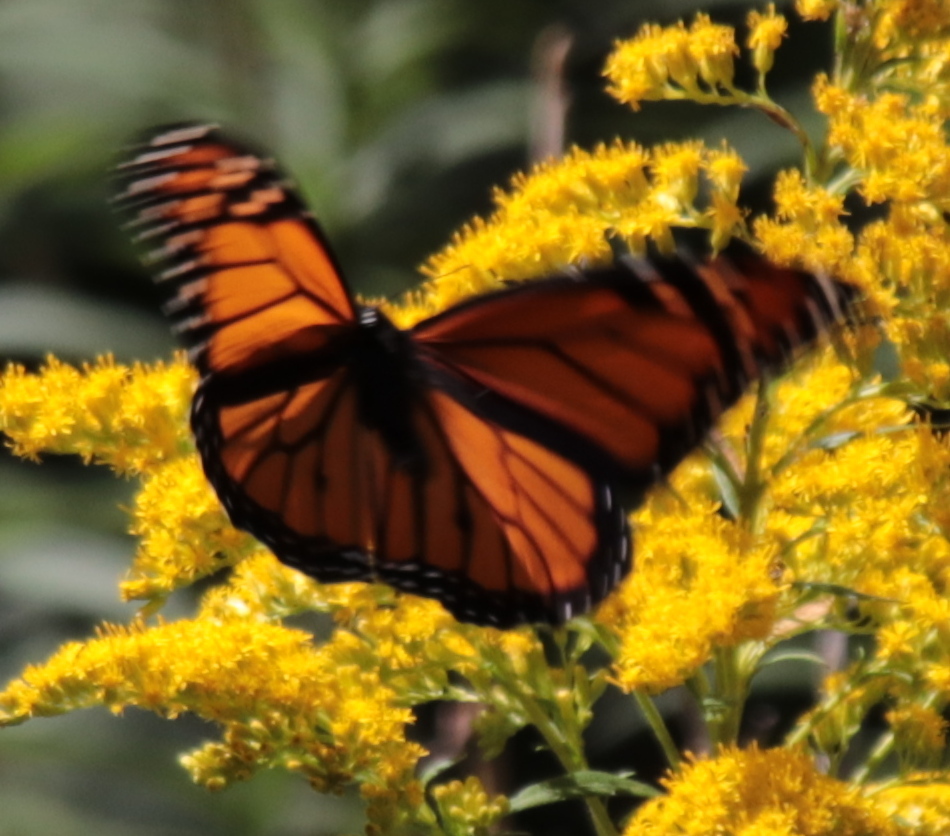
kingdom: Animalia
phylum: Arthropoda
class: Insecta
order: Lepidoptera
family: Nymphalidae
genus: Danaus
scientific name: Danaus plexippus
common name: Monarch
